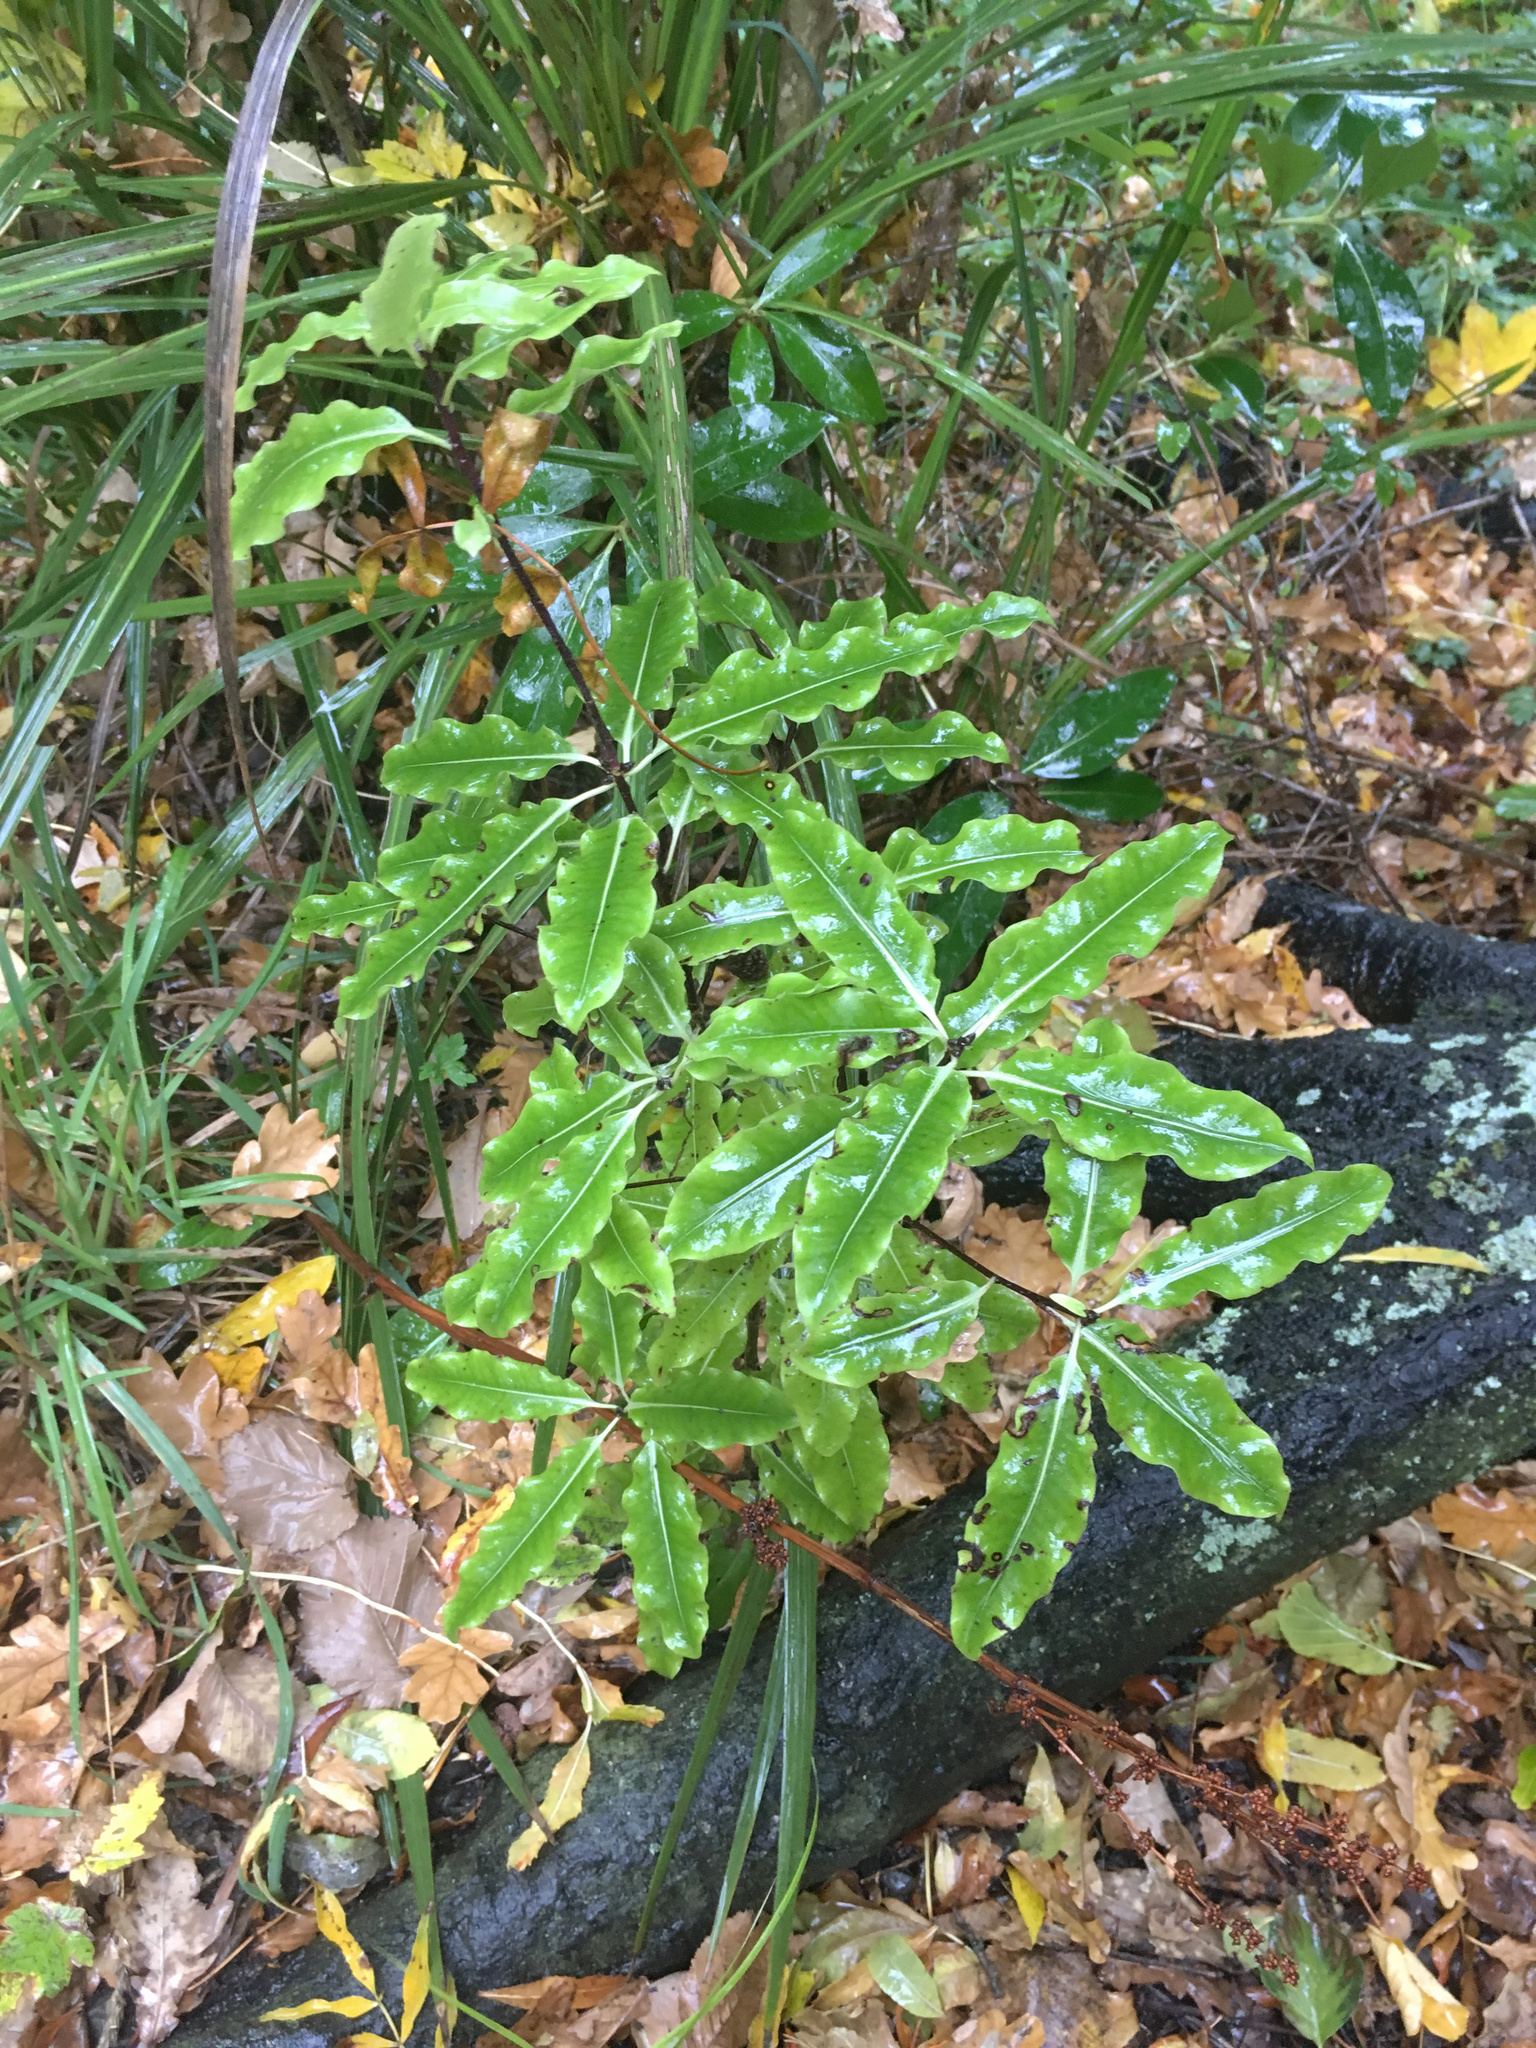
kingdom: Plantae
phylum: Tracheophyta
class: Magnoliopsida
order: Apiales
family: Pittosporaceae
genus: Pittosporum
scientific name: Pittosporum eugenioides
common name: Lemonwood
